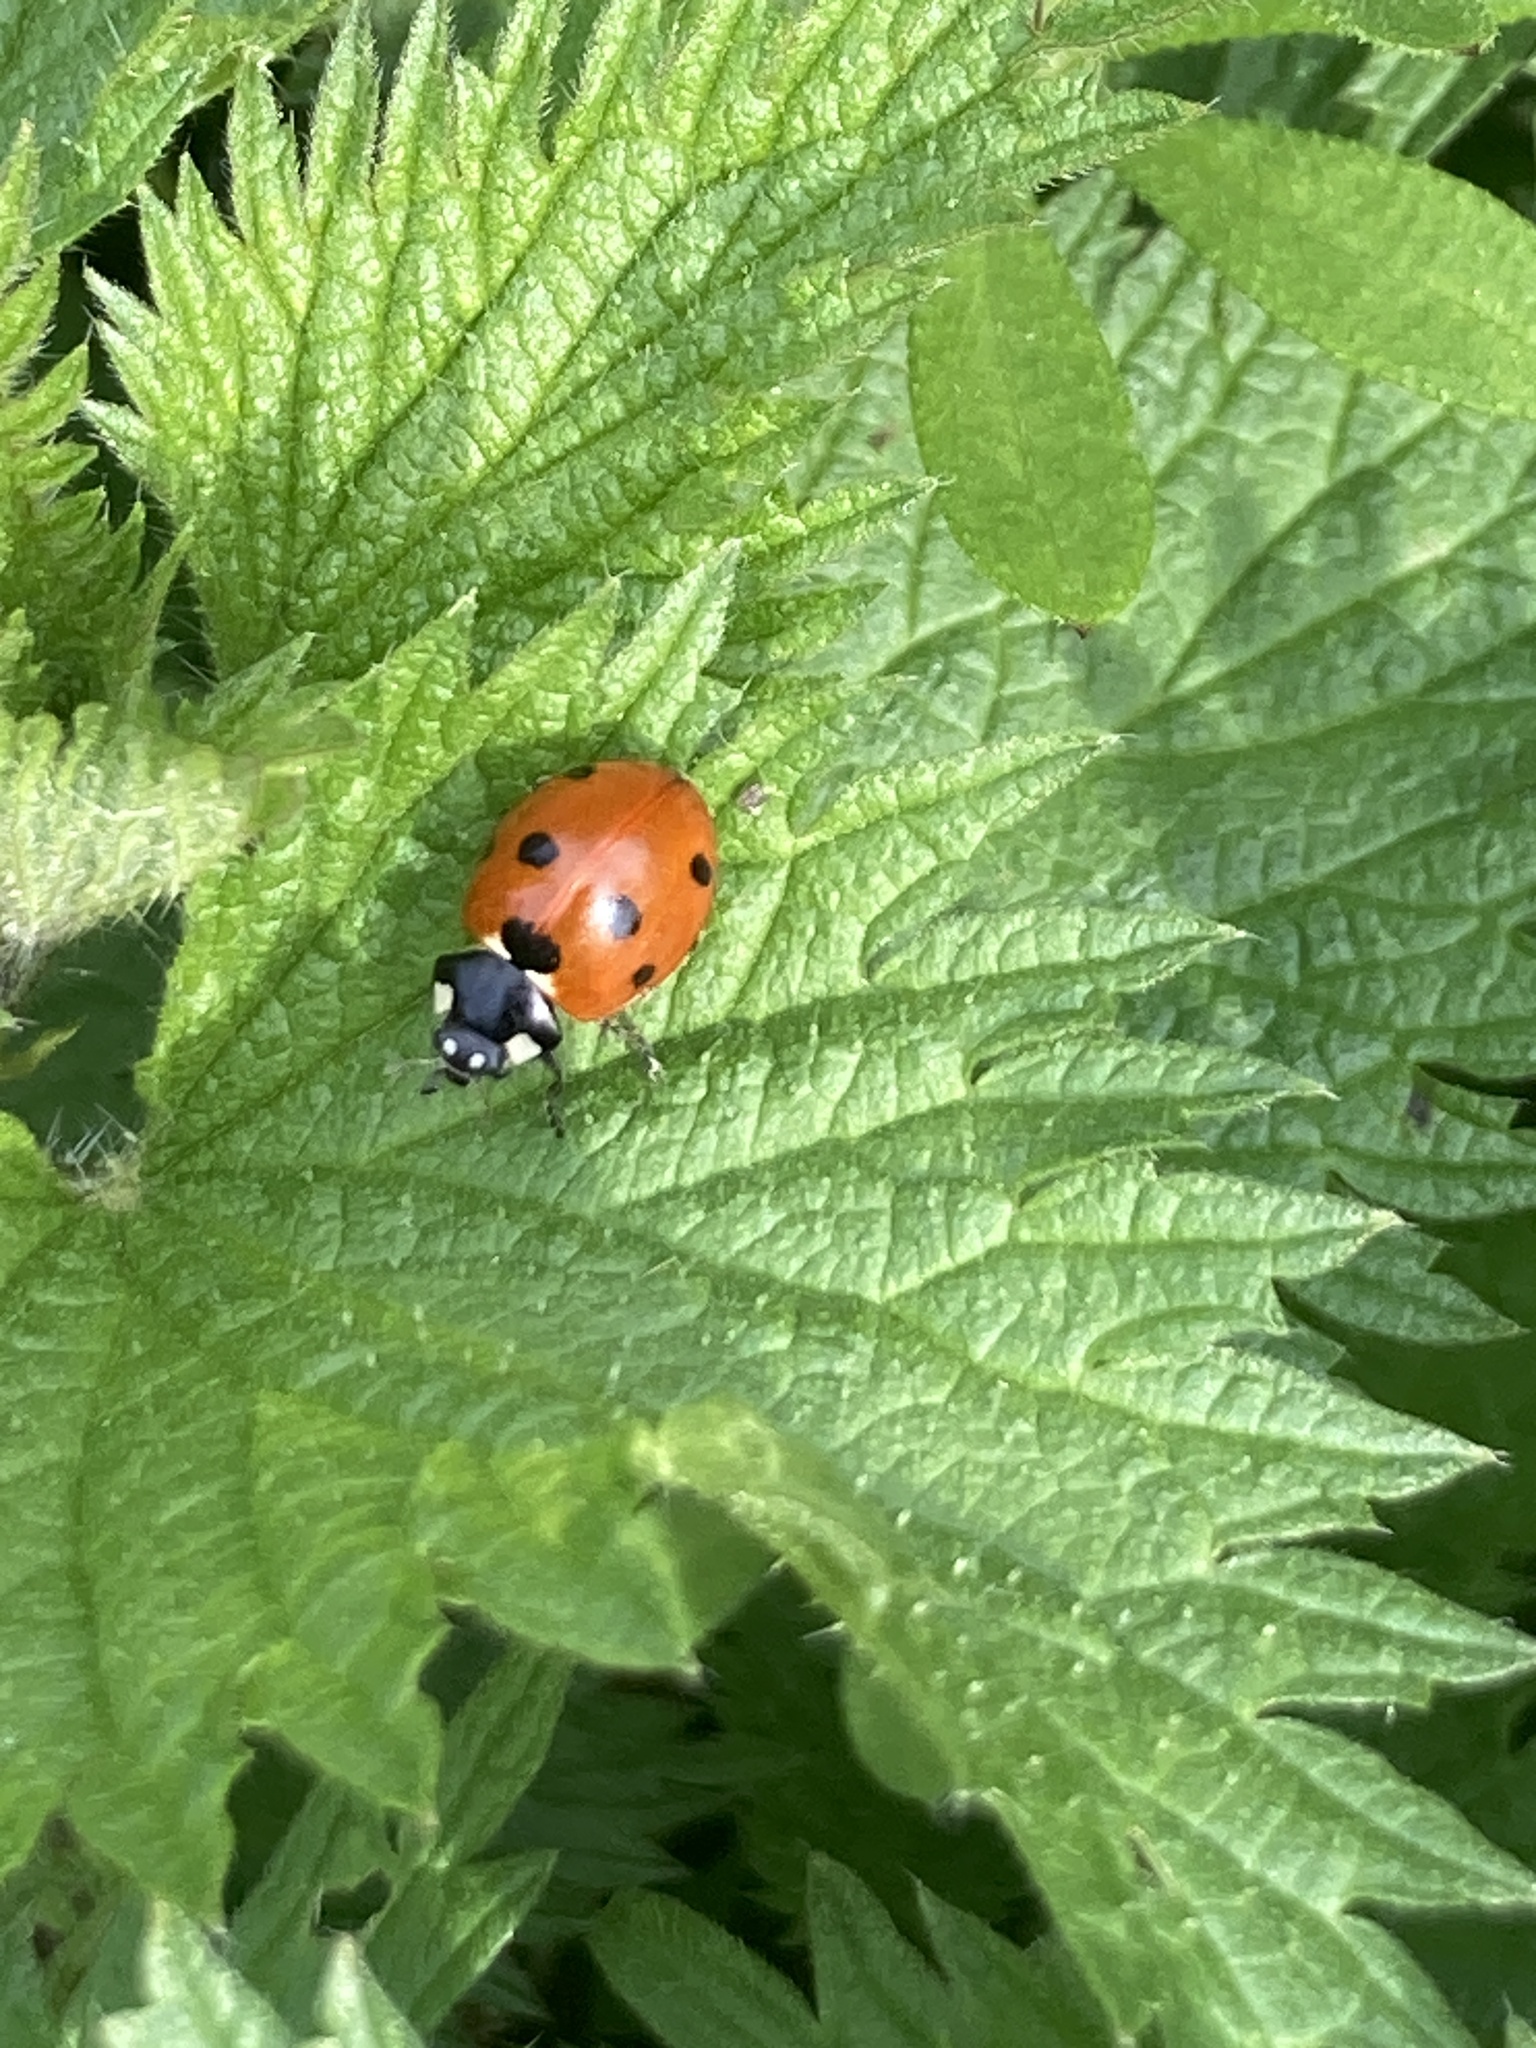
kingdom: Animalia
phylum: Arthropoda
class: Insecta
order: Coleoptera
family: Coccinellidae
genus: Coccinella
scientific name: Coccinella septempunctata
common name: Sevenspotted lady beetle
